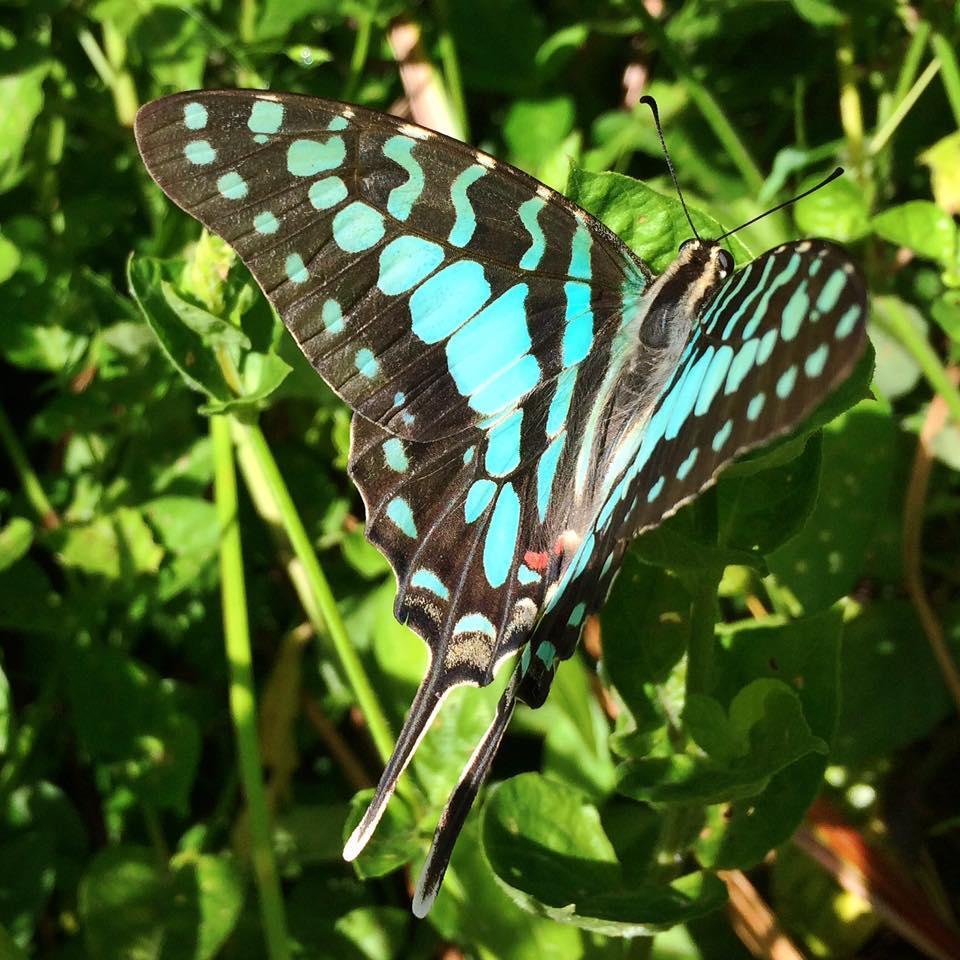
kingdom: Animalia
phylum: Arthropoda
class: Insecta
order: Lepidoptera
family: Papilionidae
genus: Graphium
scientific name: Graphium antheus
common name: Large striped swordtail
